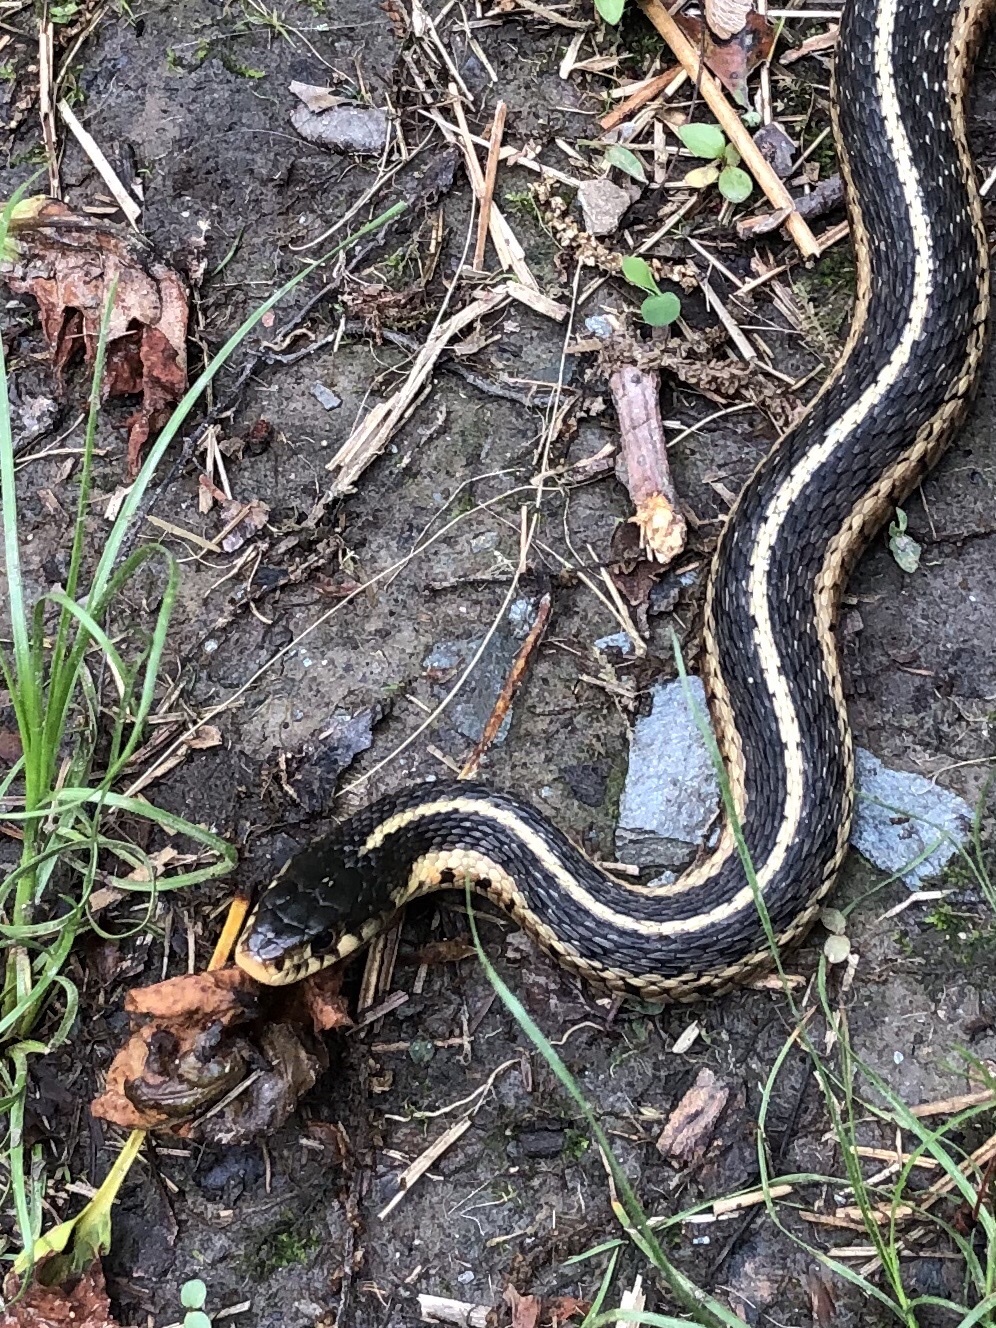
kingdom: Animalia
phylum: Chordata
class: Squamata
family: Colubridae
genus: Thamnophis
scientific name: Thamnophis sirtalis
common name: Common garter snake
